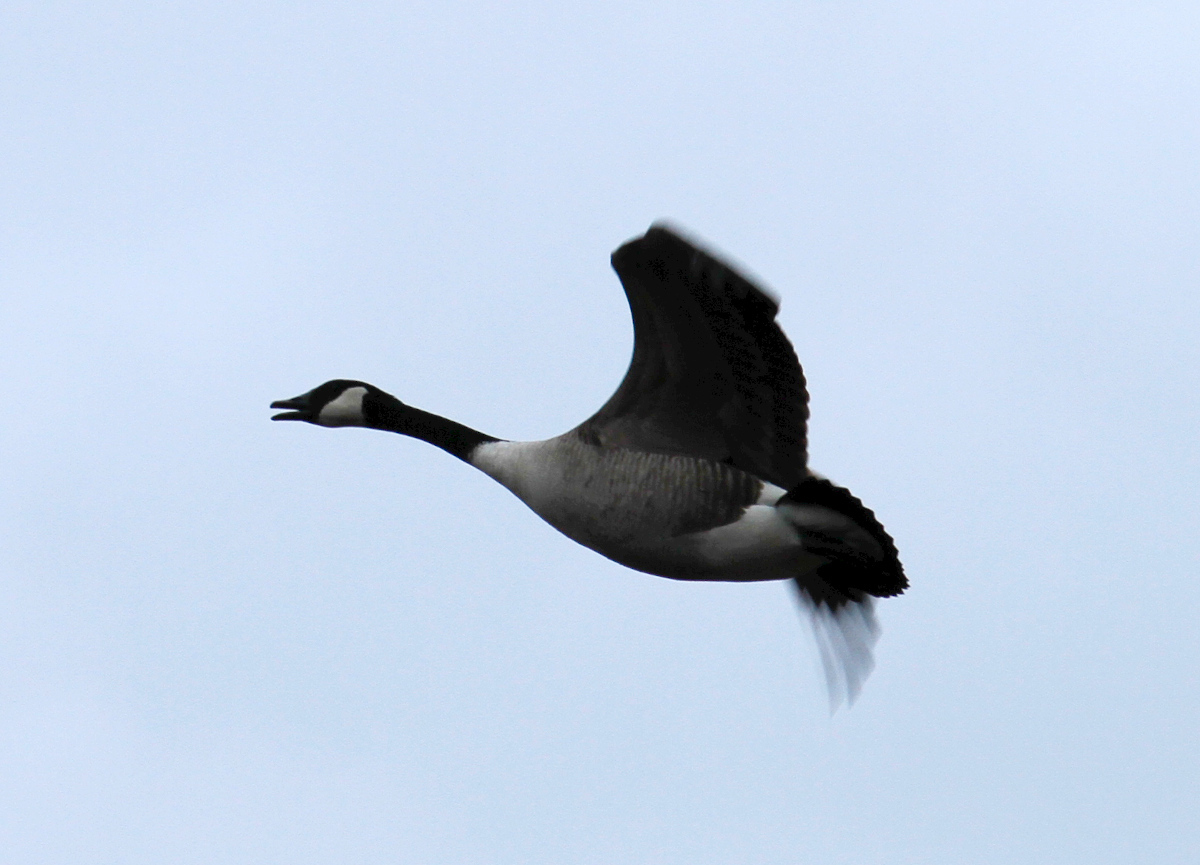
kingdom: Animalia
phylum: Chordata
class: Aves
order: Anseriformes
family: Anatidae
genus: Branta
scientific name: Branta canadensis
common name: Canada goose
